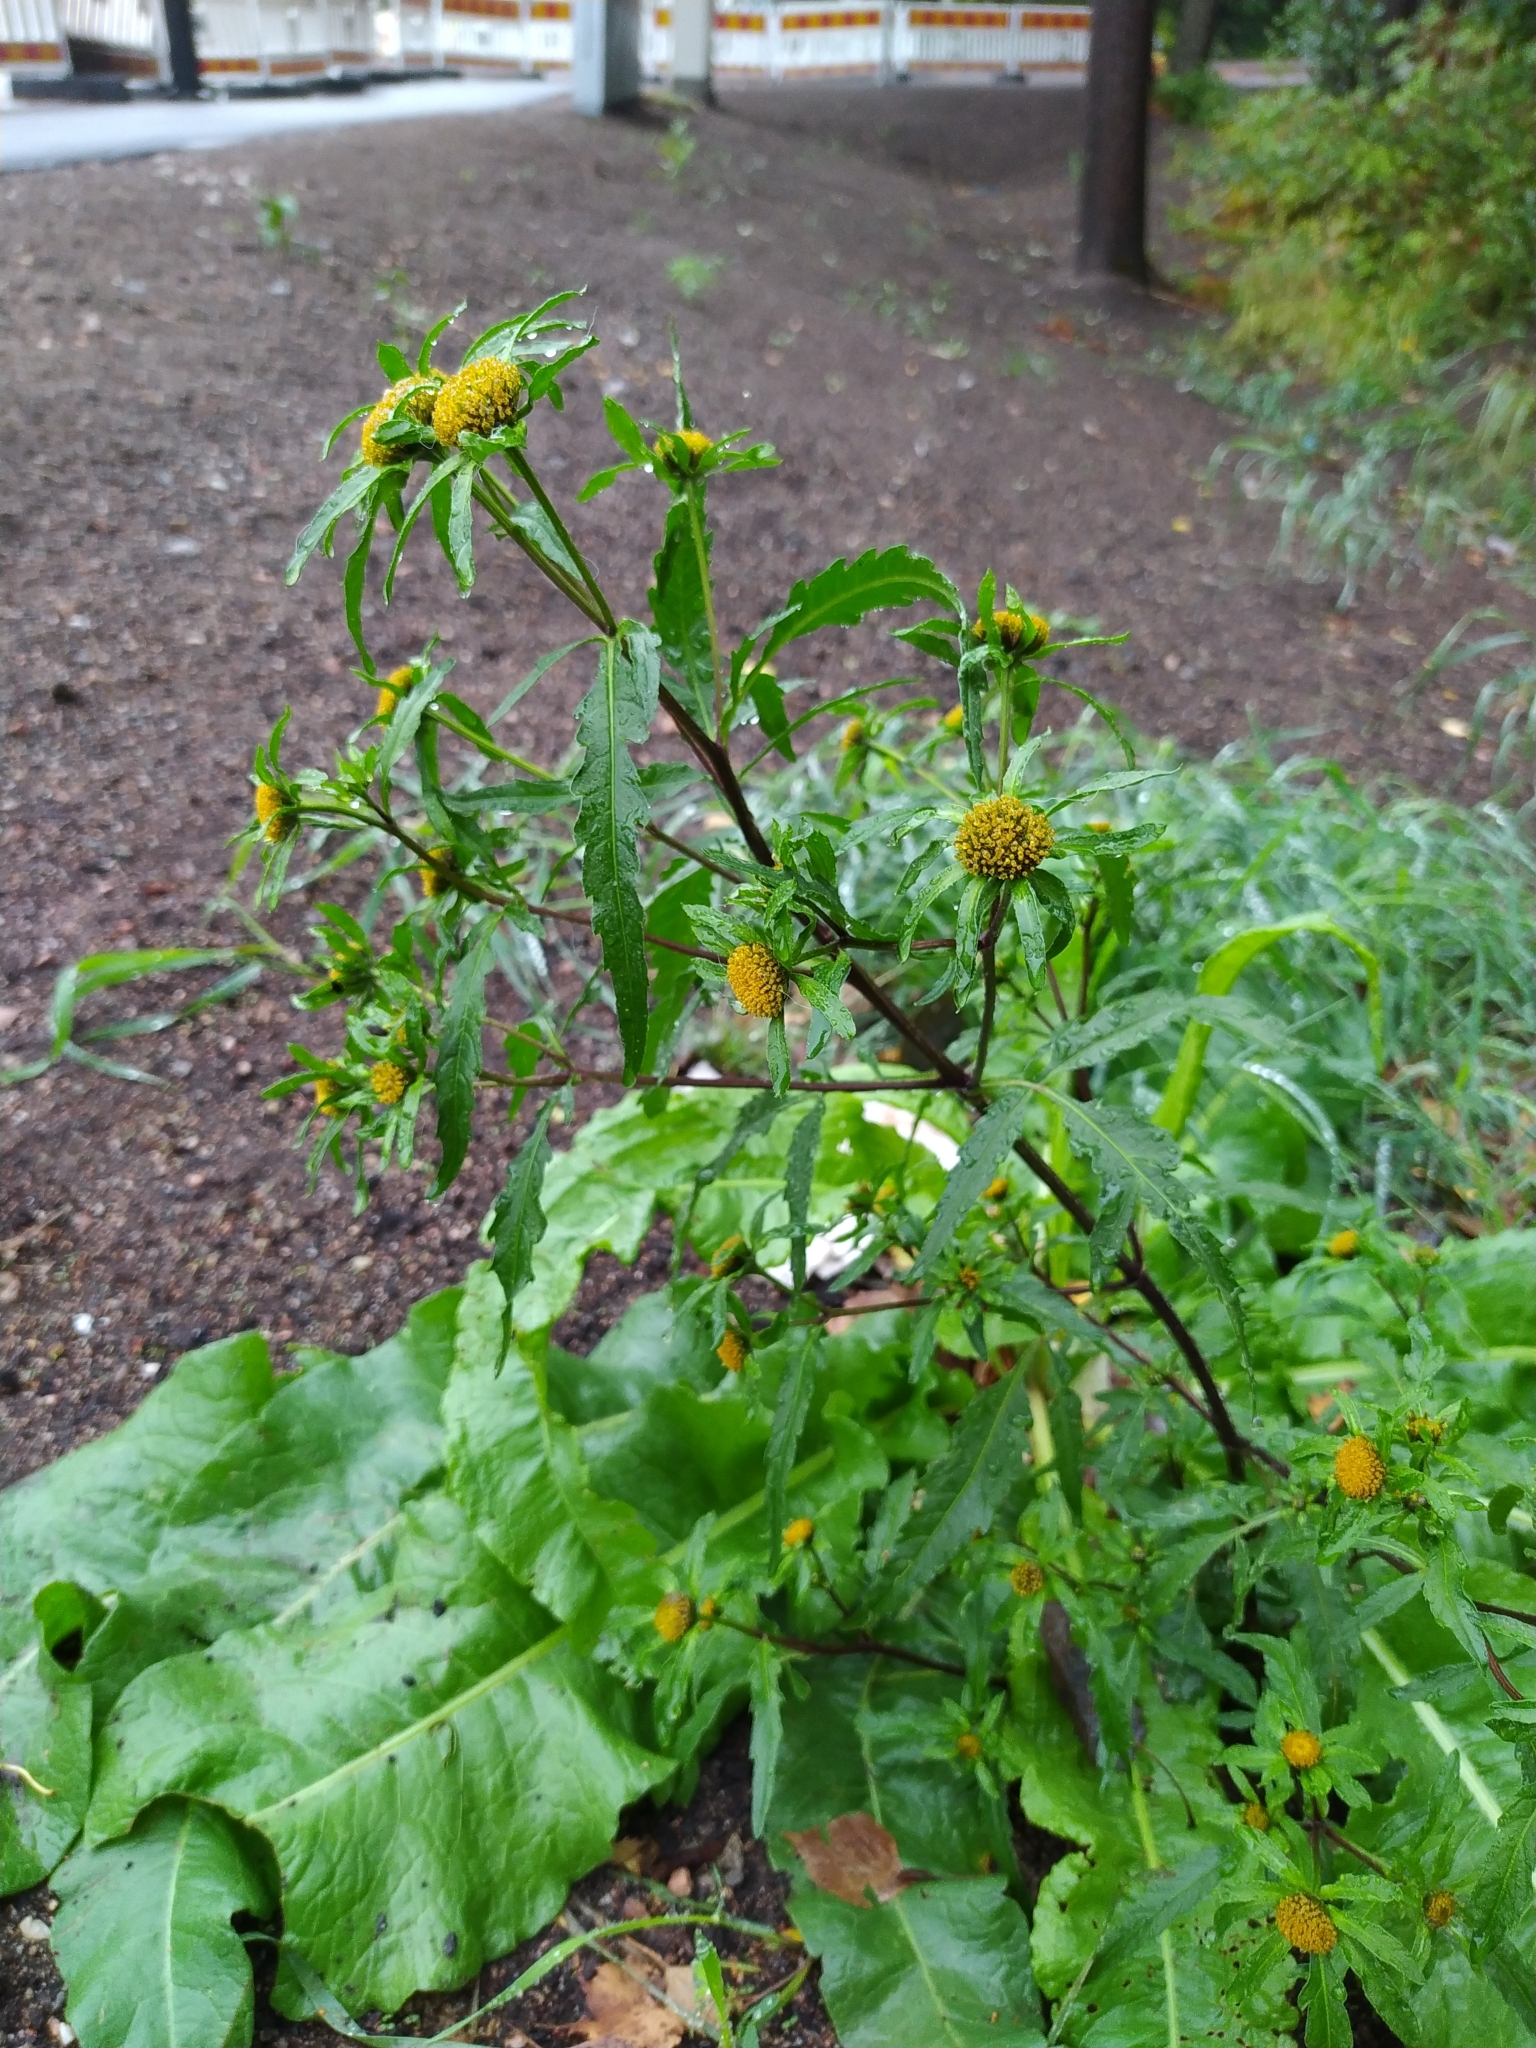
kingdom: Plantae
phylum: Tracheophyta
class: Magnoliopsida
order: Asterales
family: Asteraceae
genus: Bidens
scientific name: Bidens tripartita
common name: Trifid bur-marigold
